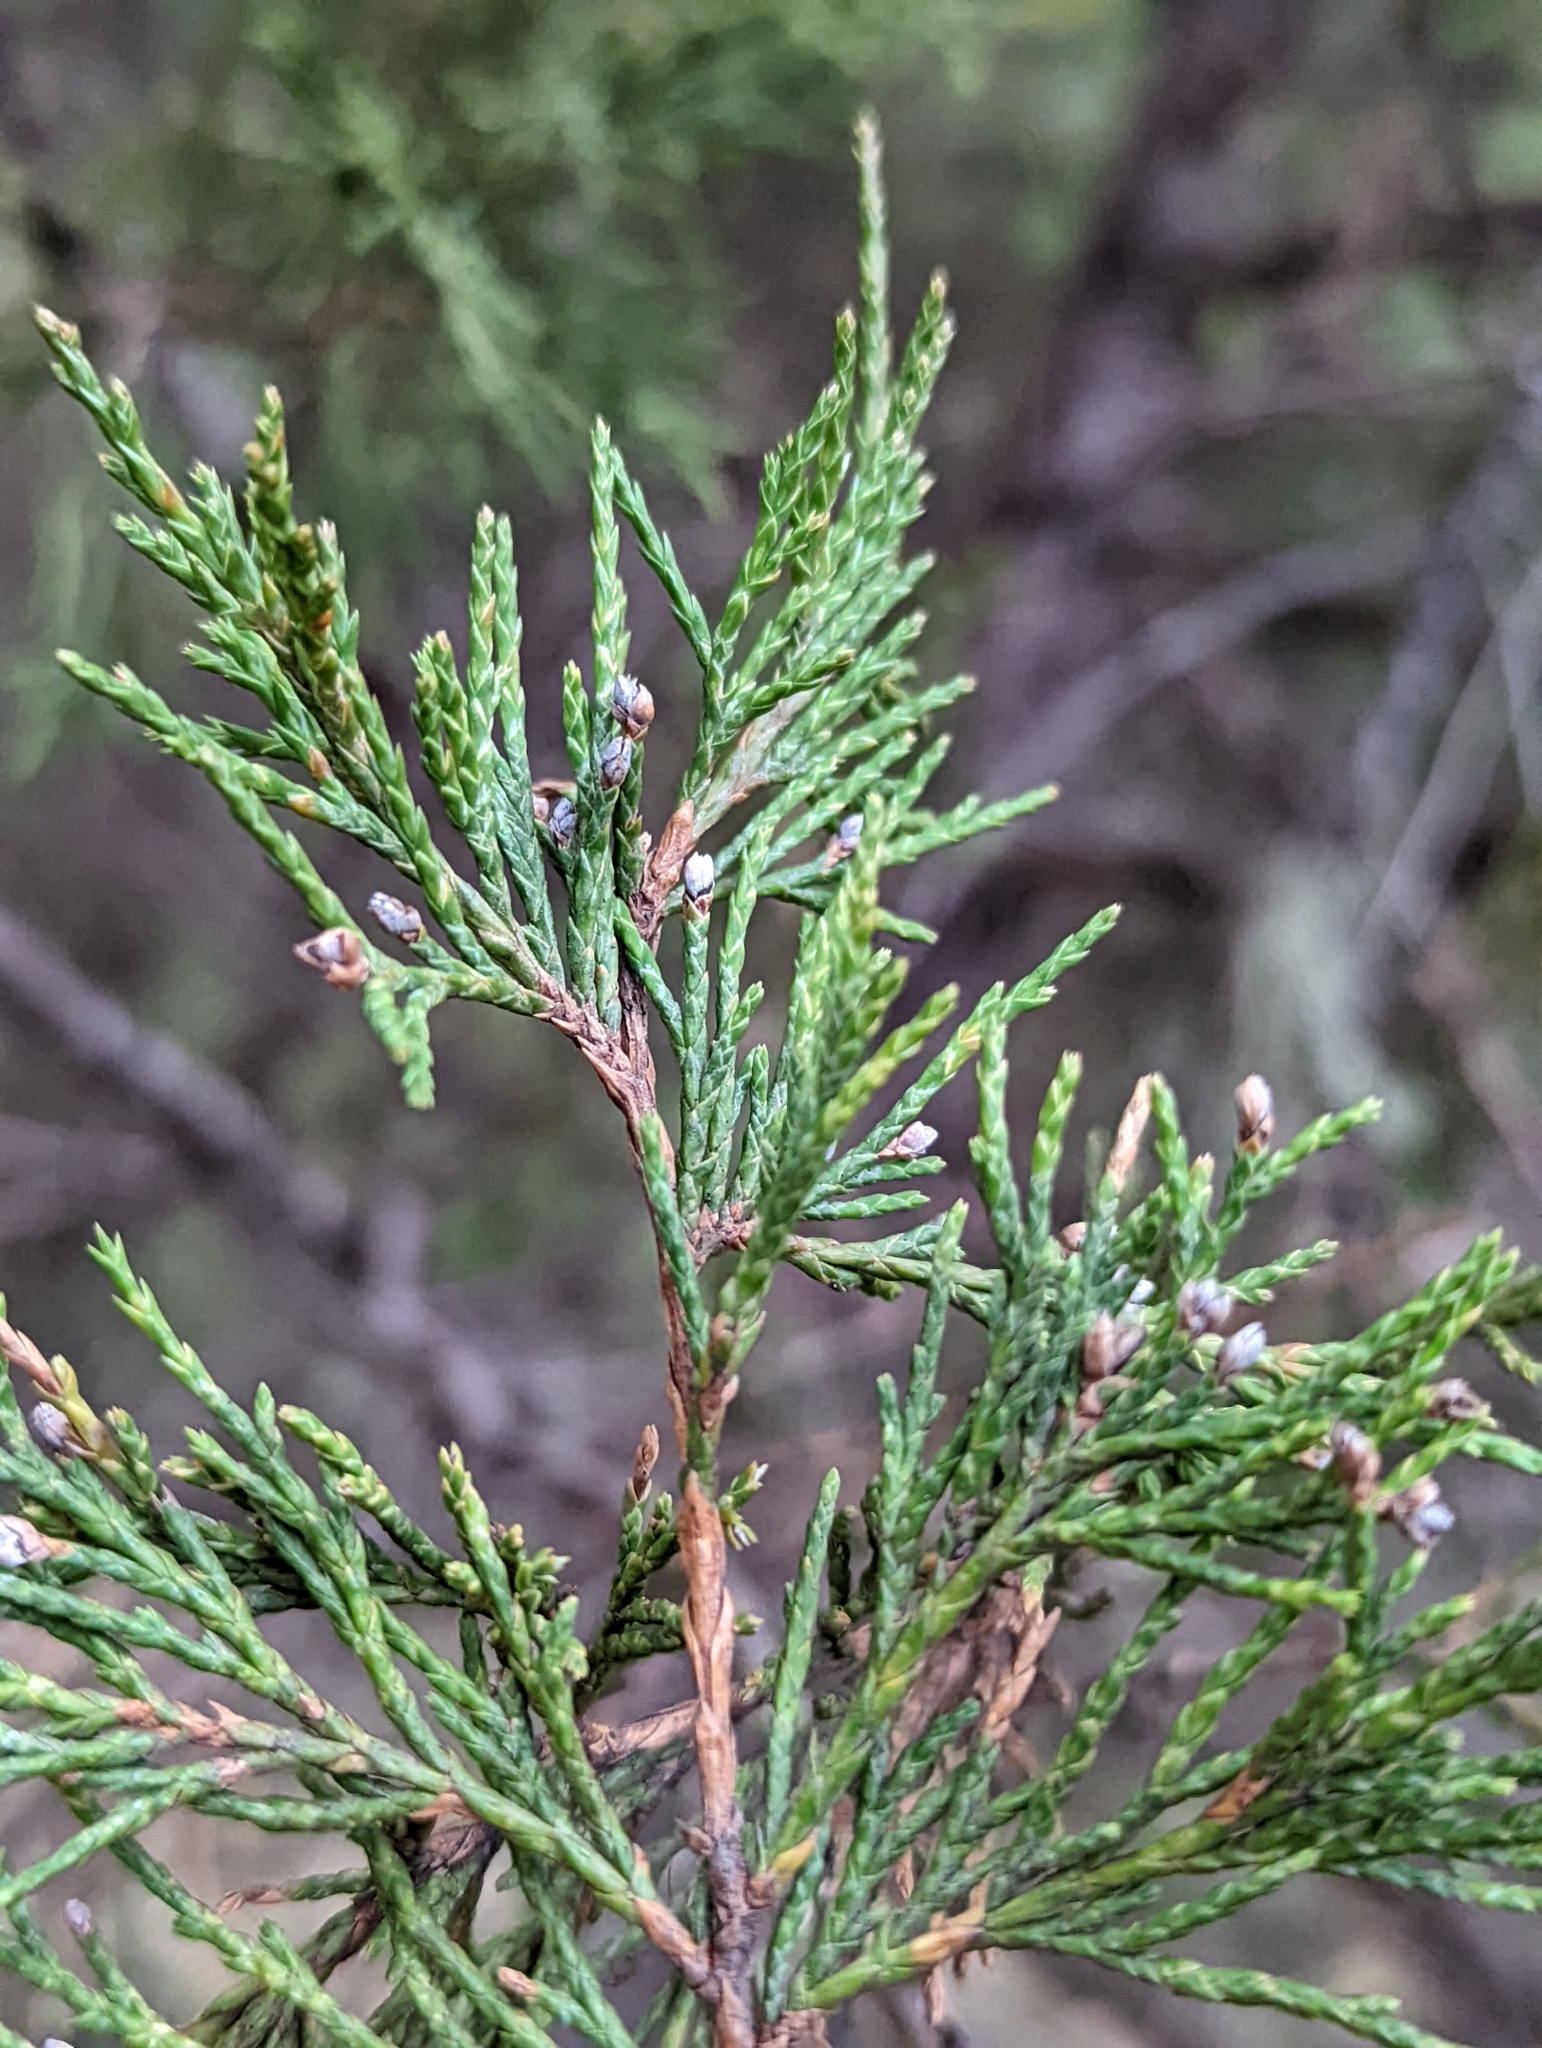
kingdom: Plantae
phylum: Tracheophyta
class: Pinopsida
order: Pinales
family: Cupressaceae
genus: Juniperus
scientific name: Juniperus scopulorum
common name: Rocky mountain juniper
